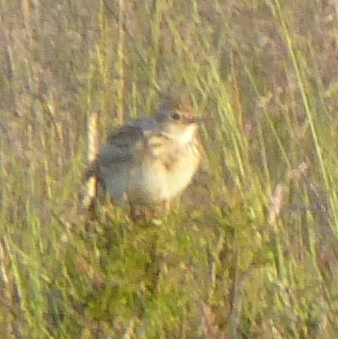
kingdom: Animalia
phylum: Chordata
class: Aves
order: Passeriformes
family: Alaudidae
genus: Alauda
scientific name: Alauda arvensis
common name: Eurasian skylark
